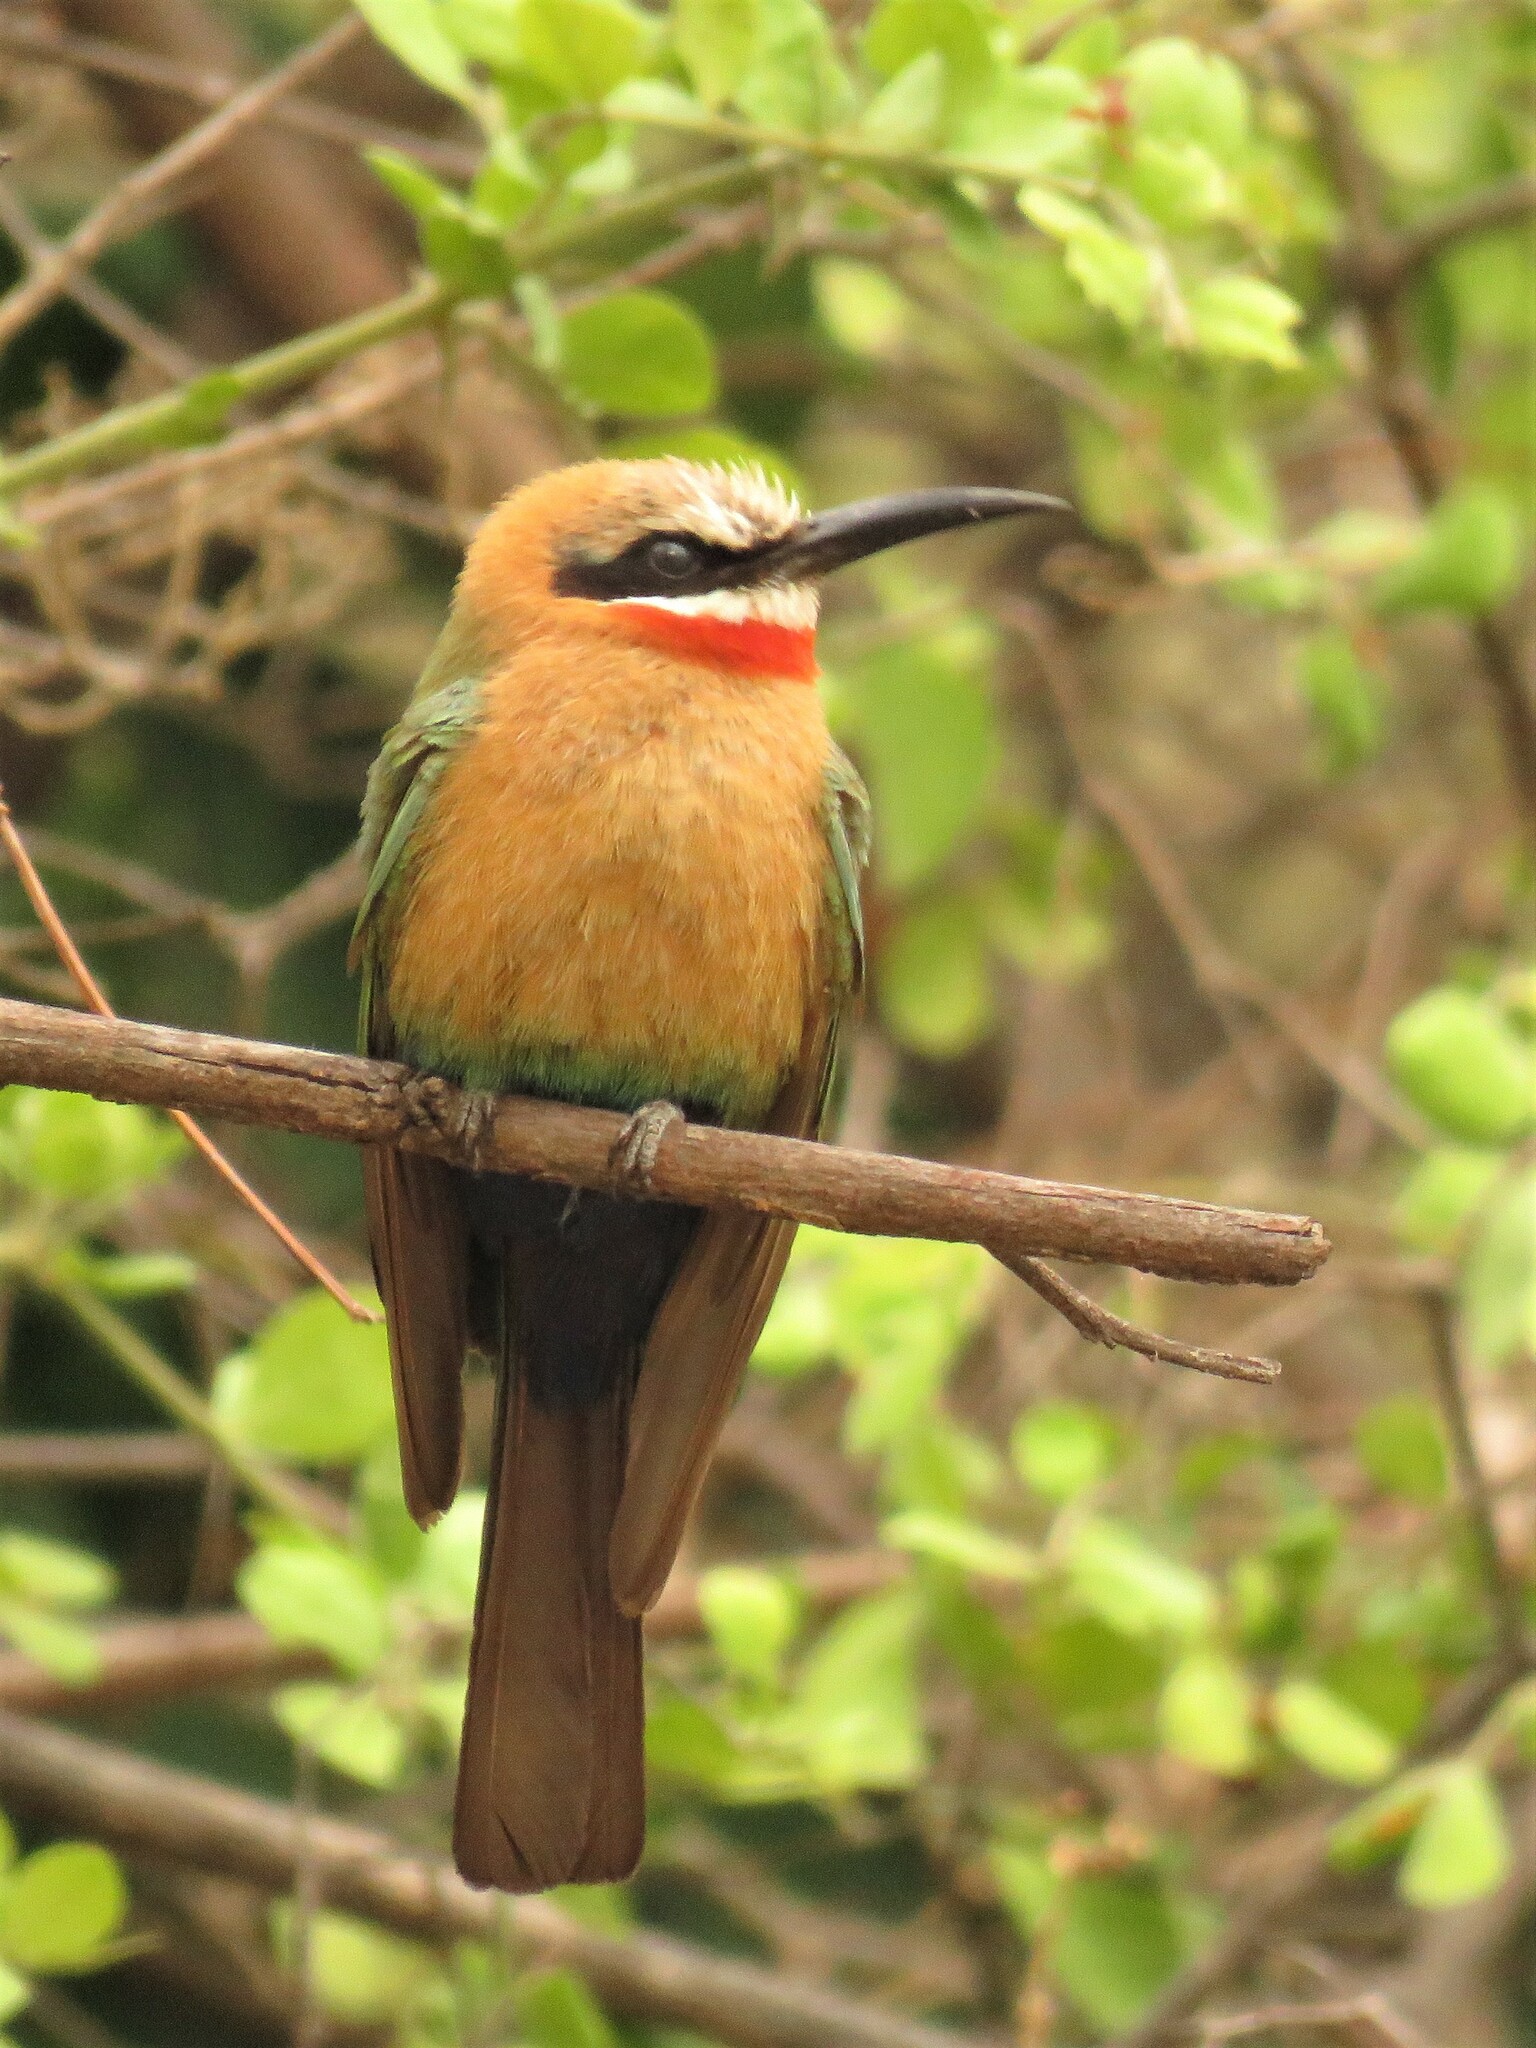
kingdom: Animalia
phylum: Chordata
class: Aves
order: Coraciiformes
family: Meropidae
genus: Merops
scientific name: Merops bullockoides
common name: White-fronted bee-eater
